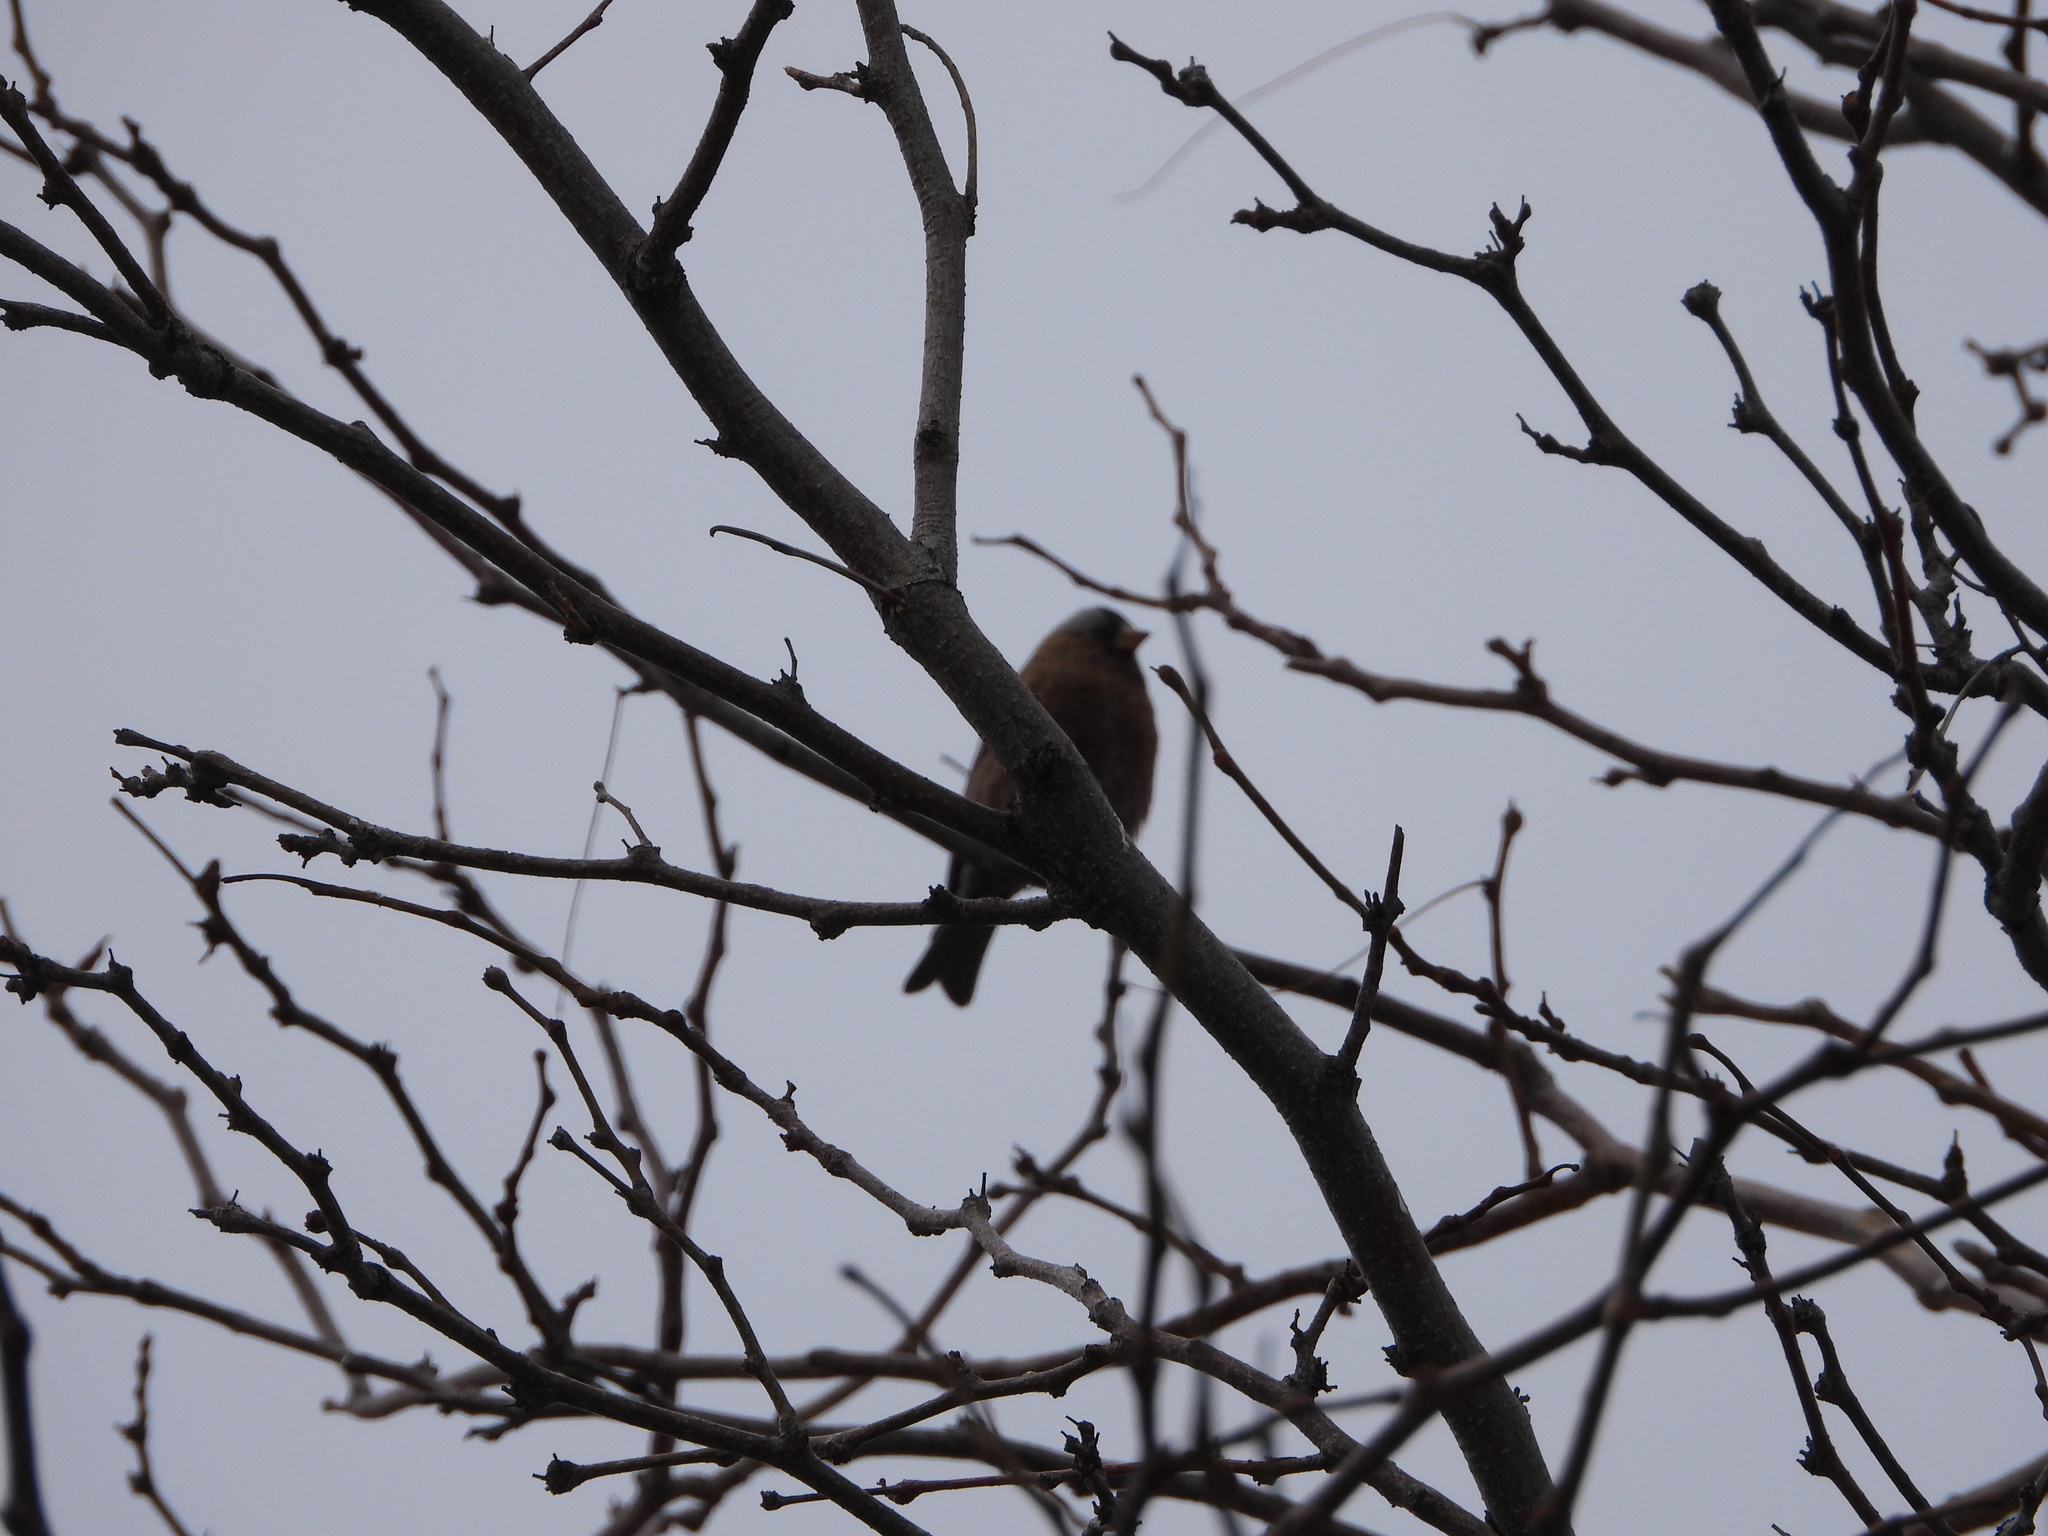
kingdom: Animalia
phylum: Chordata
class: Aves
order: Passeriformes
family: Fringillidae
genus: Leucosticte
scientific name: Leucosticte tephrocotis
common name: Gray-crowned rosy-finch
